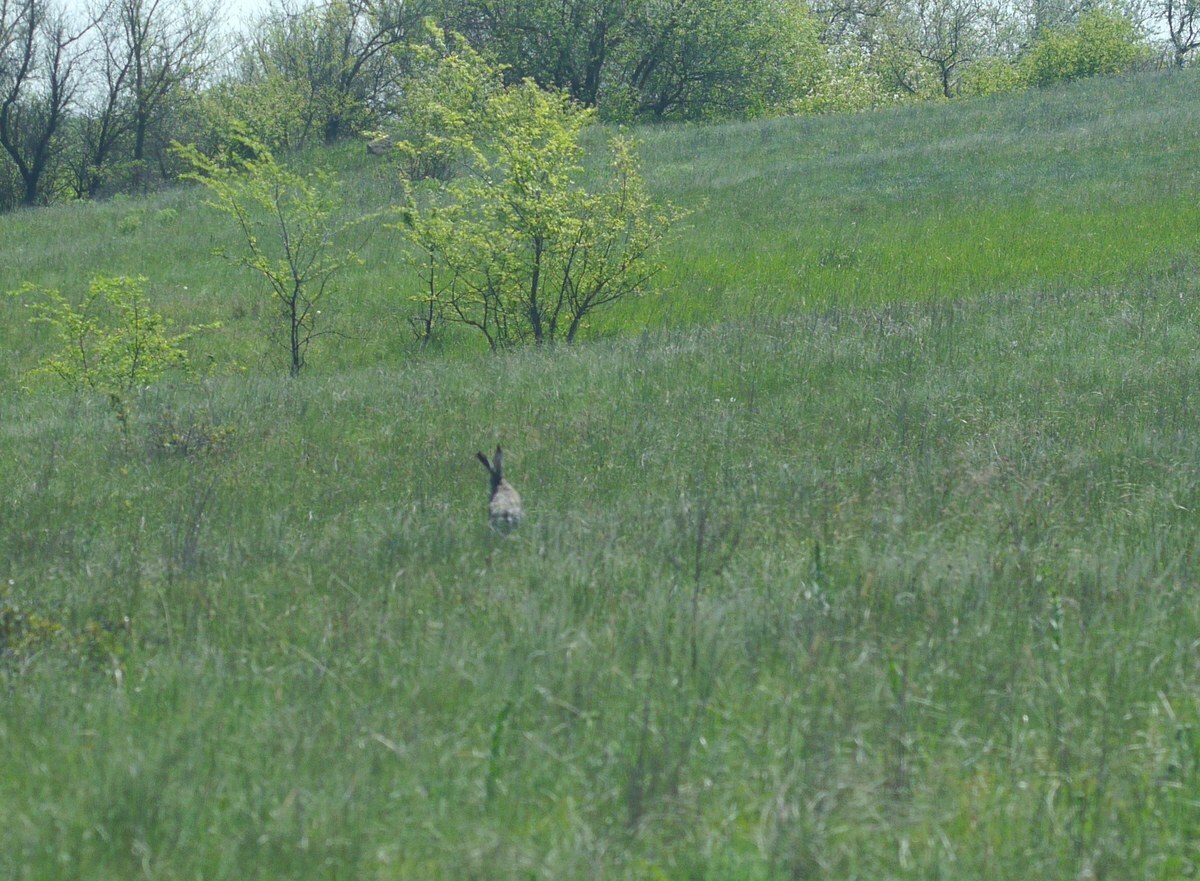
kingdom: Animalia
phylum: Chordata
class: Mammalia
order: Lagomorpha
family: Leporidae
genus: Lepus
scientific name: Lepus europaeus
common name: European hare
